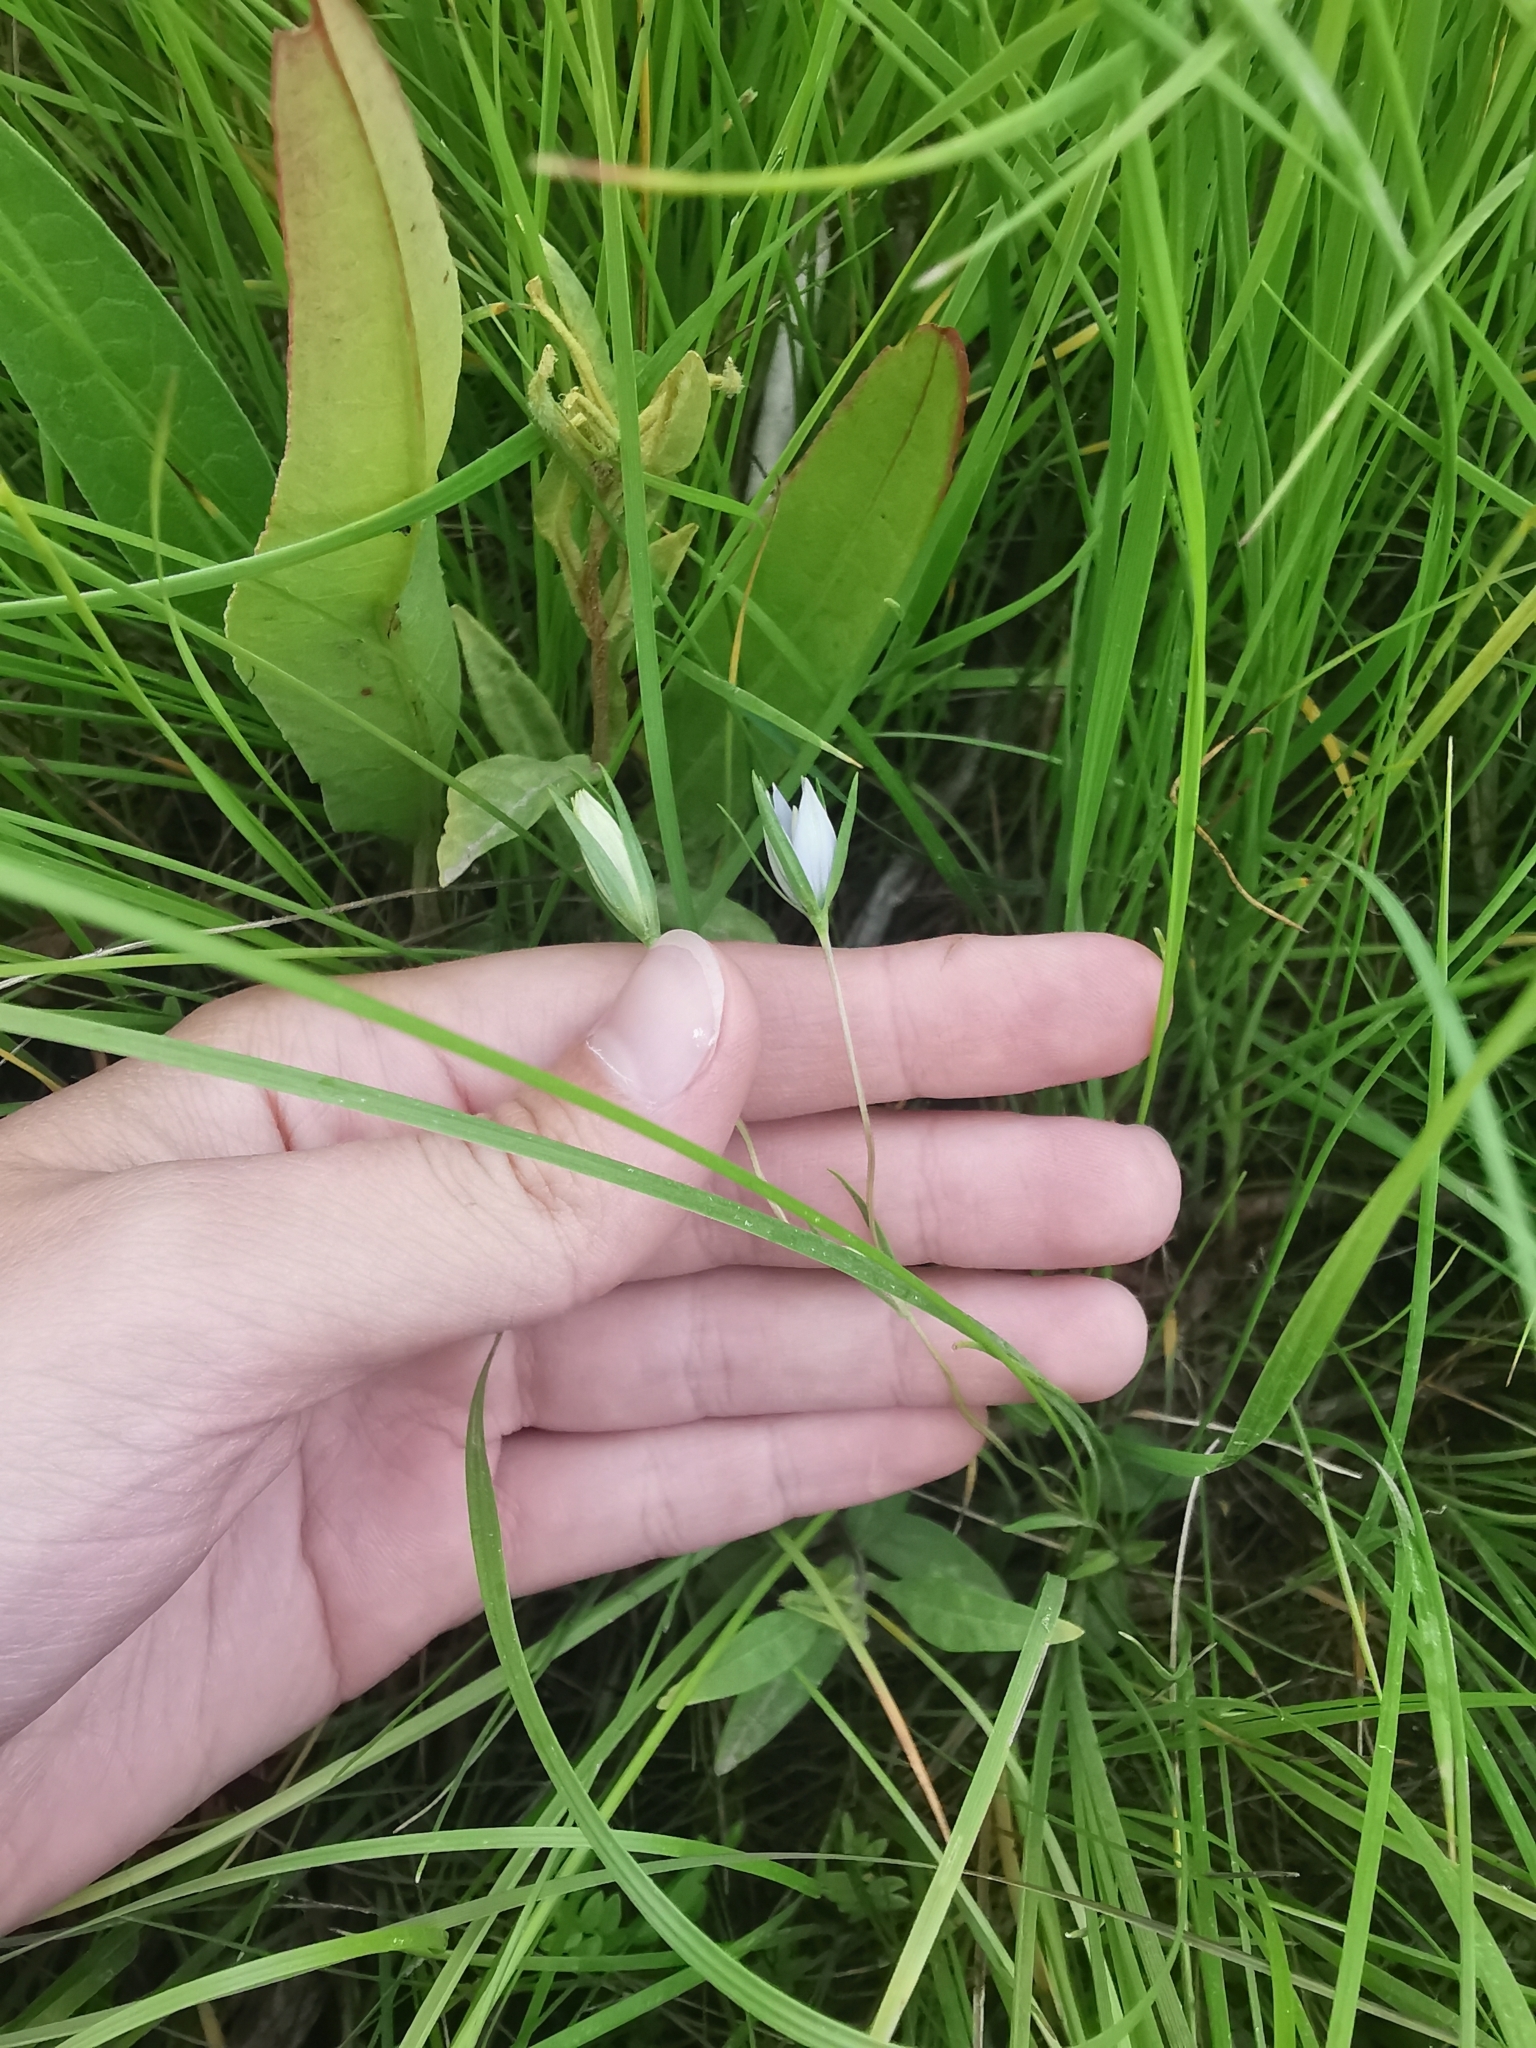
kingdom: Plantae
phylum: Tracheophyta
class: Magnoliopsida
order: Gentianales
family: Gentianaceae
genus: Lomatogonium
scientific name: Lomatogonium rotatum
